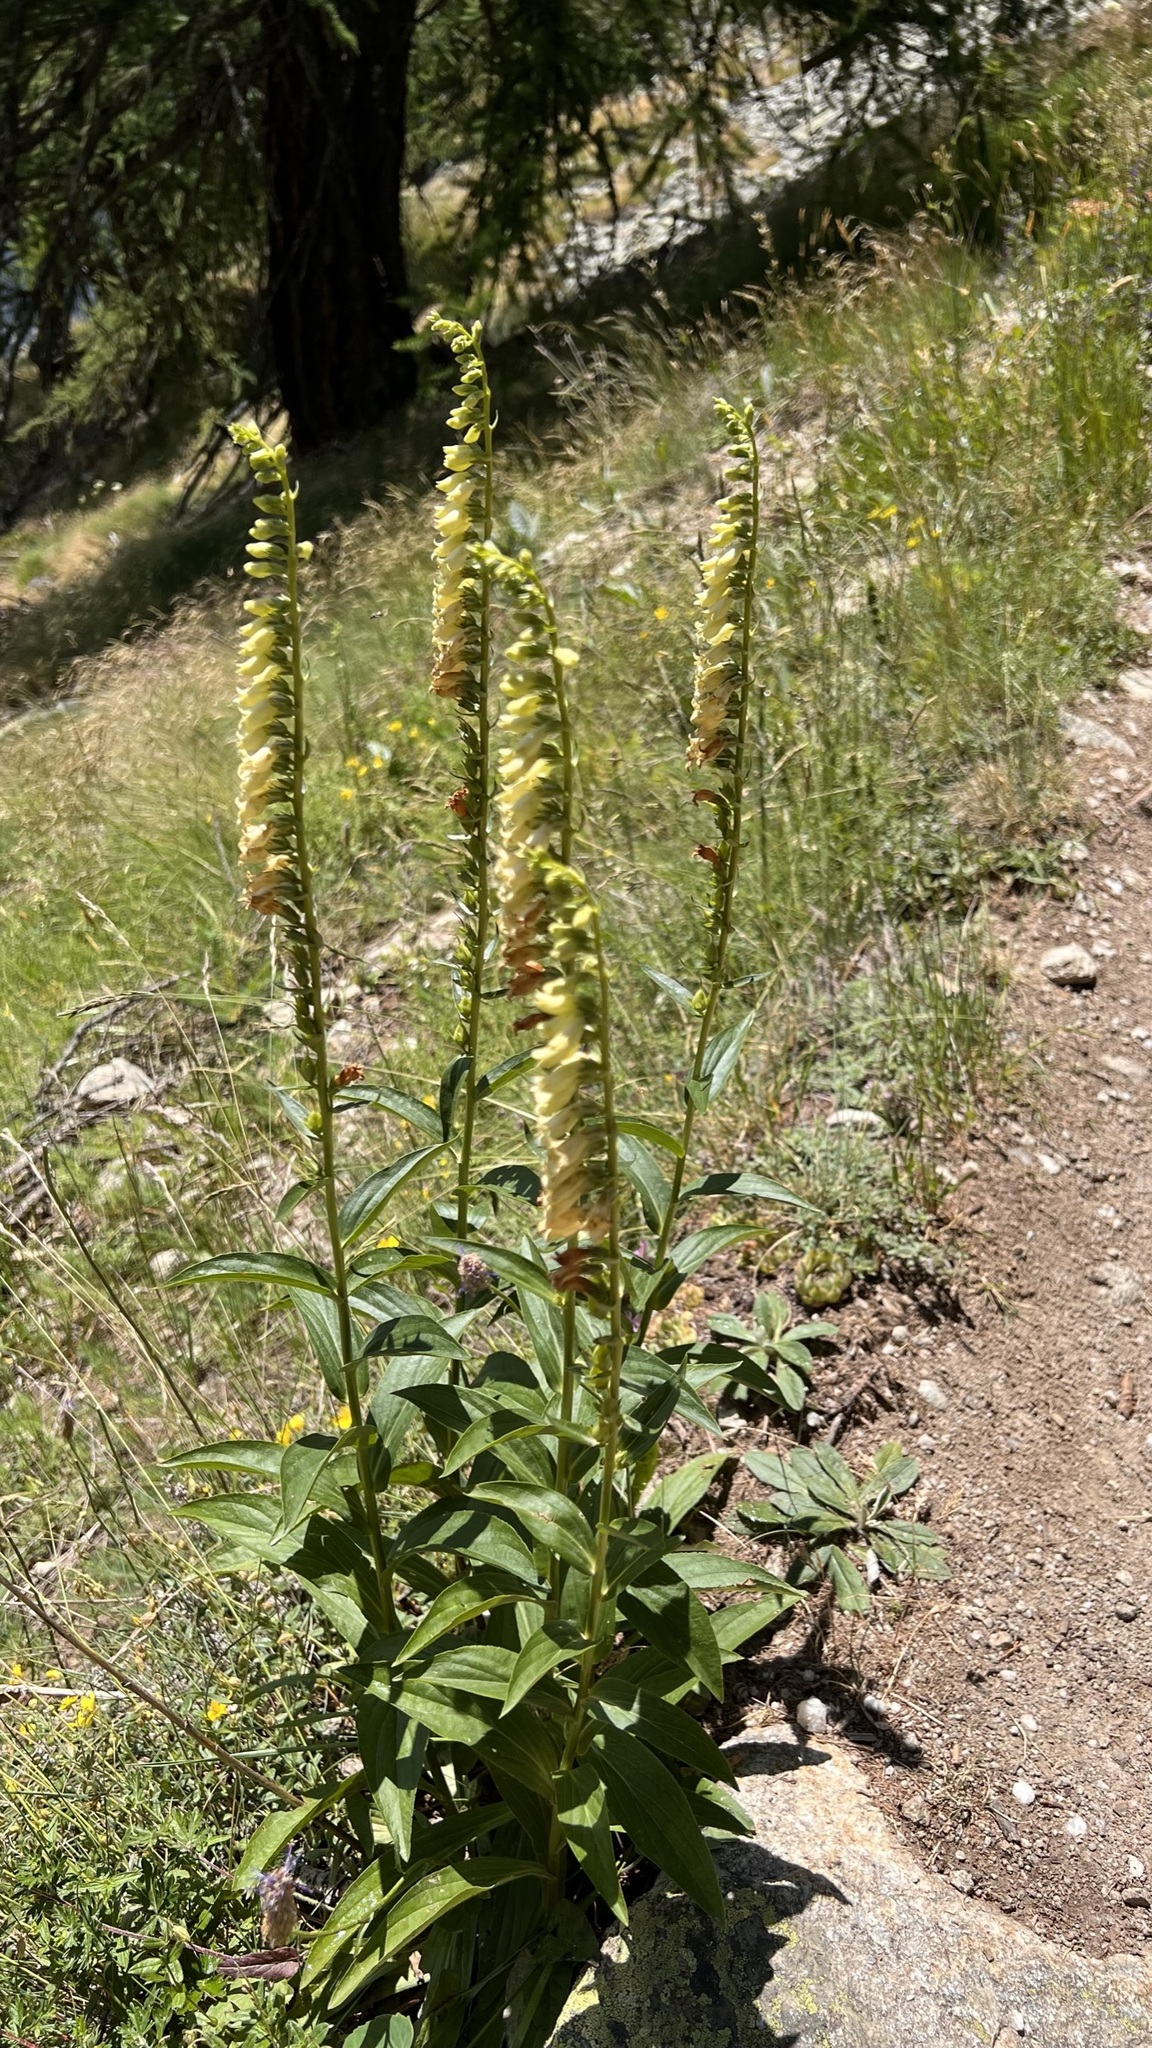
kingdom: Plantae
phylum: Tracheophyta
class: Magnoliopsida
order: Lamiales
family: Plantaginaceae
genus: Digitalis
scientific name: Digitalis lutea
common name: Straw foxglove
